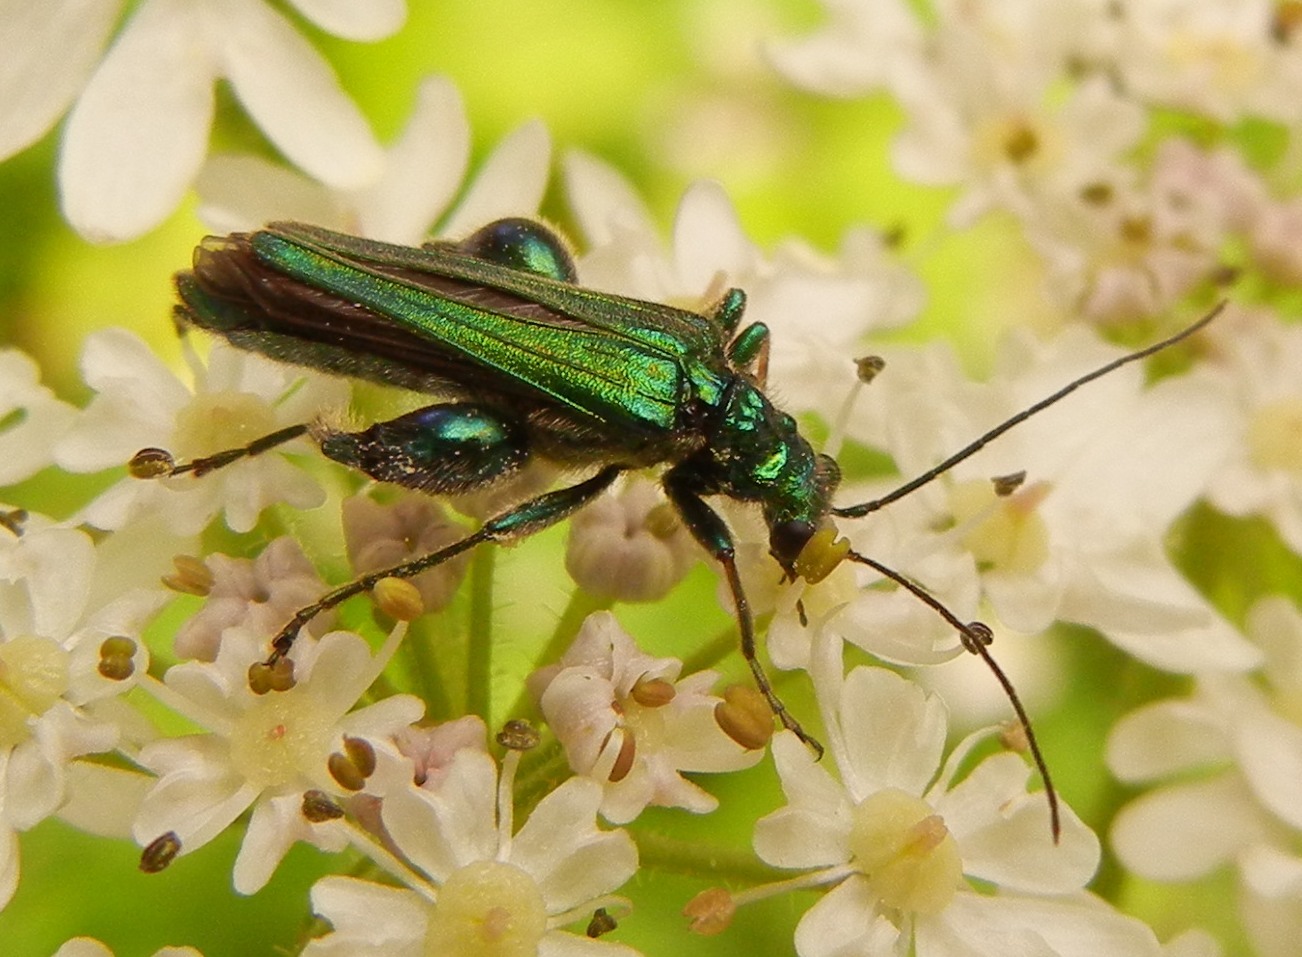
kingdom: Animalia
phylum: Arthropoda
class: Insecta
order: Coleoptera
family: Oedemeridae
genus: Oedemera
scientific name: Oedemera nobilis
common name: Swollen-thighed beetle
